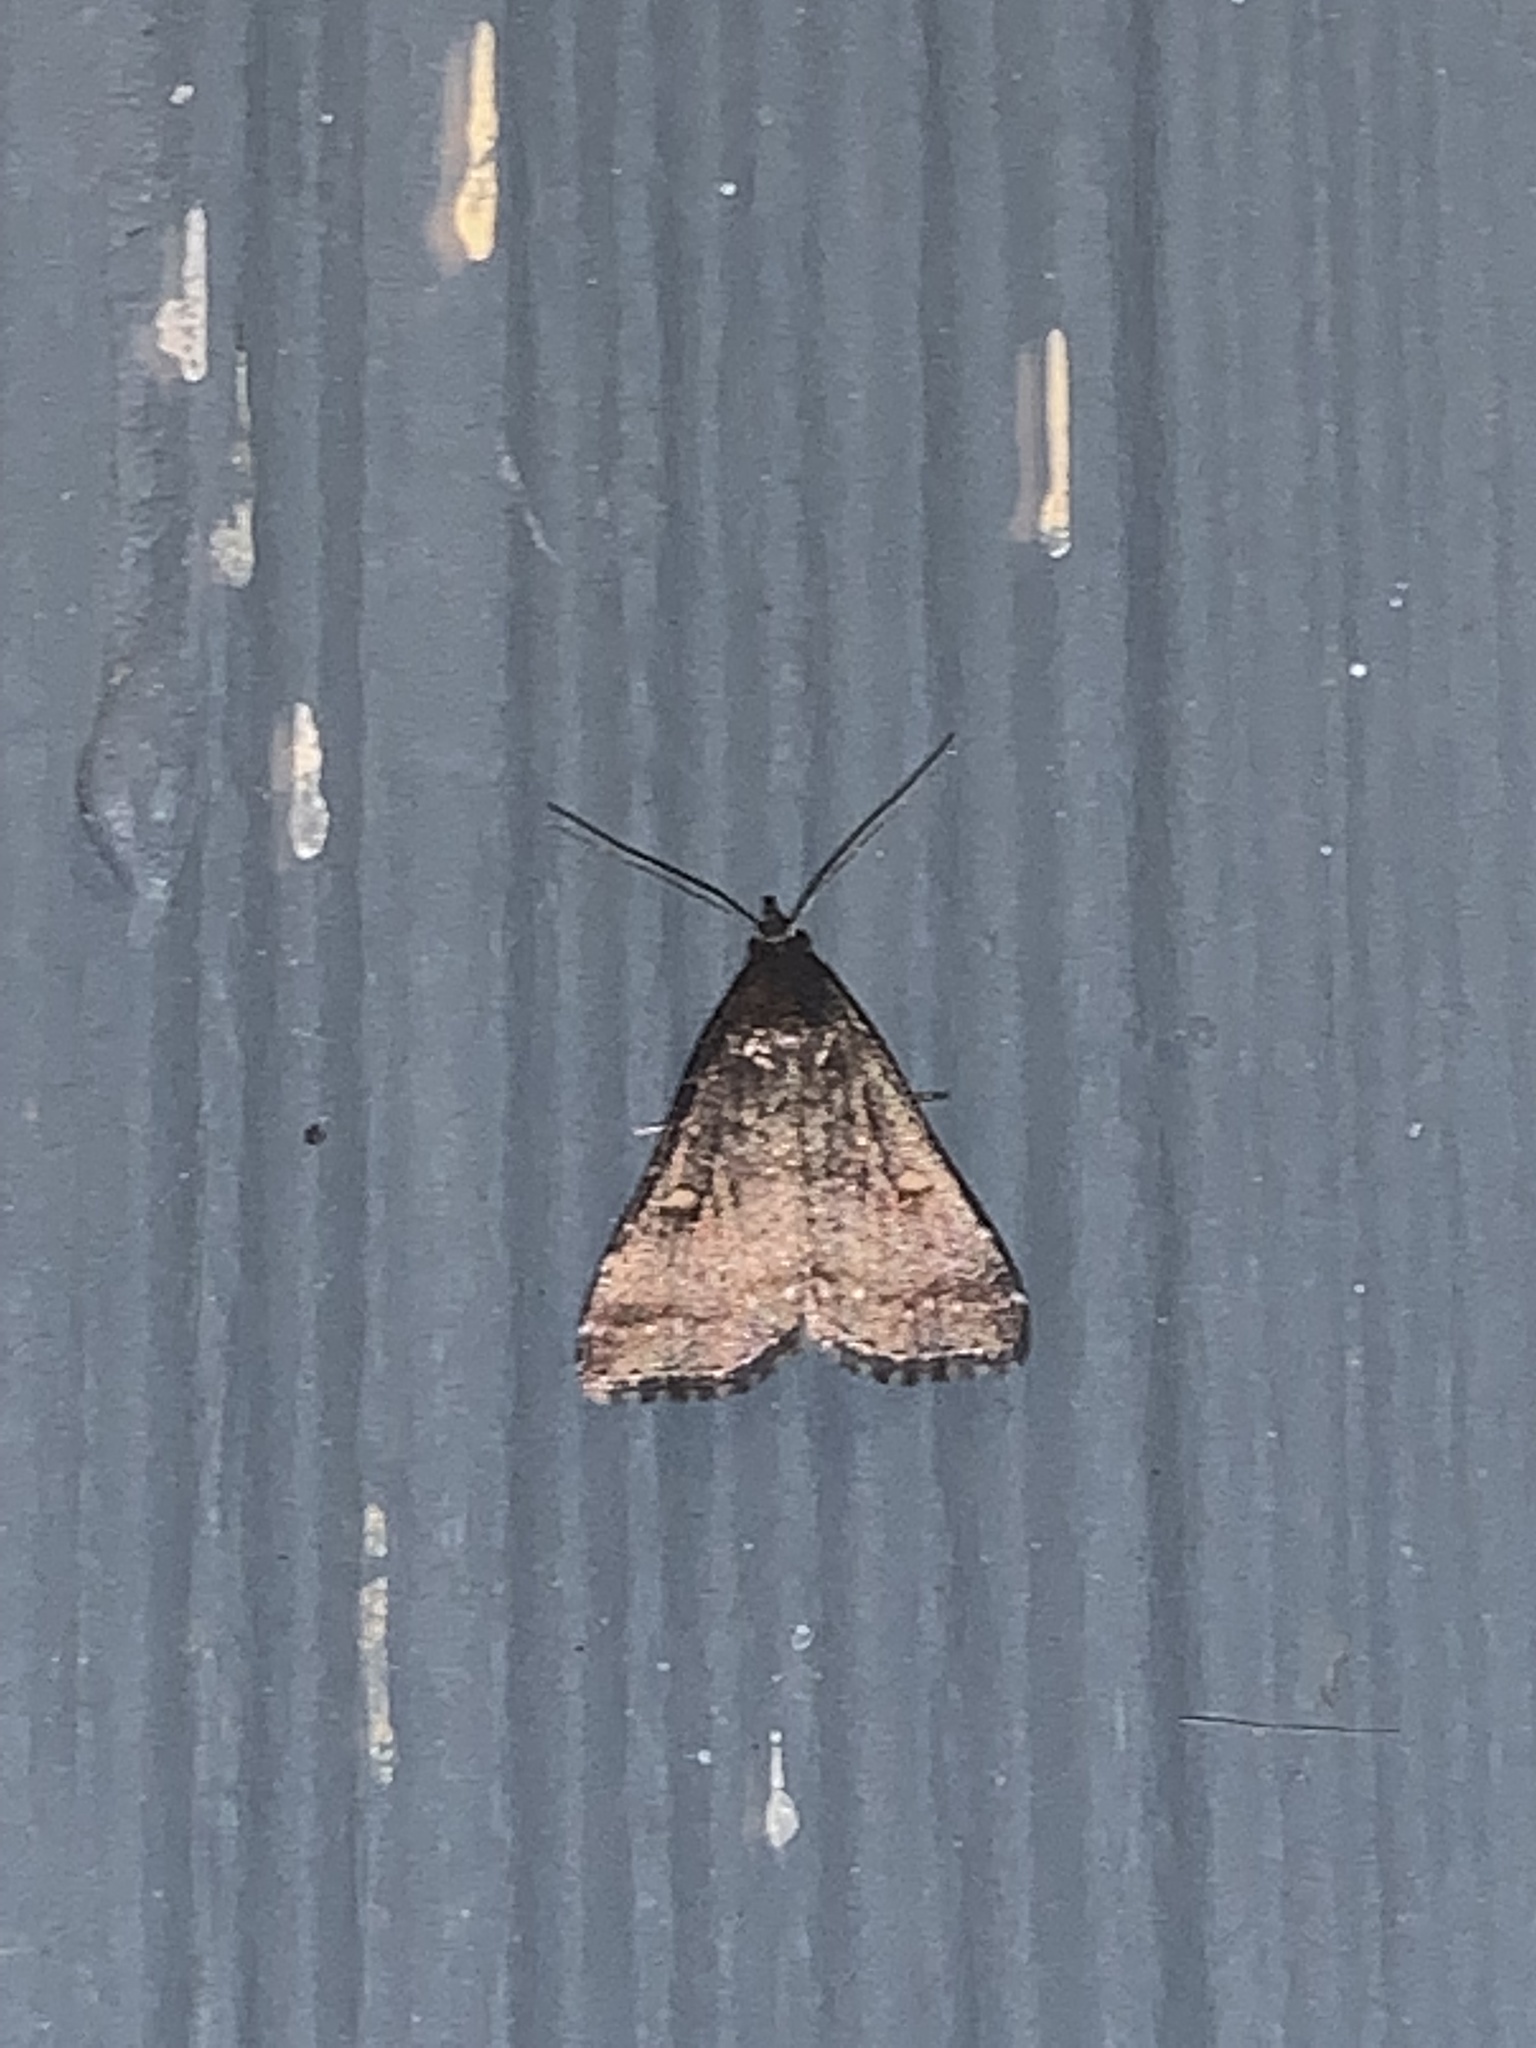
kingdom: Animalia
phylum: Arthropoda
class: Insecta
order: Lepidoptera
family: Erebidae
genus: Tetanolita
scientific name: Tetanolita mynesalis
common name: Smoky tetanolita moth
